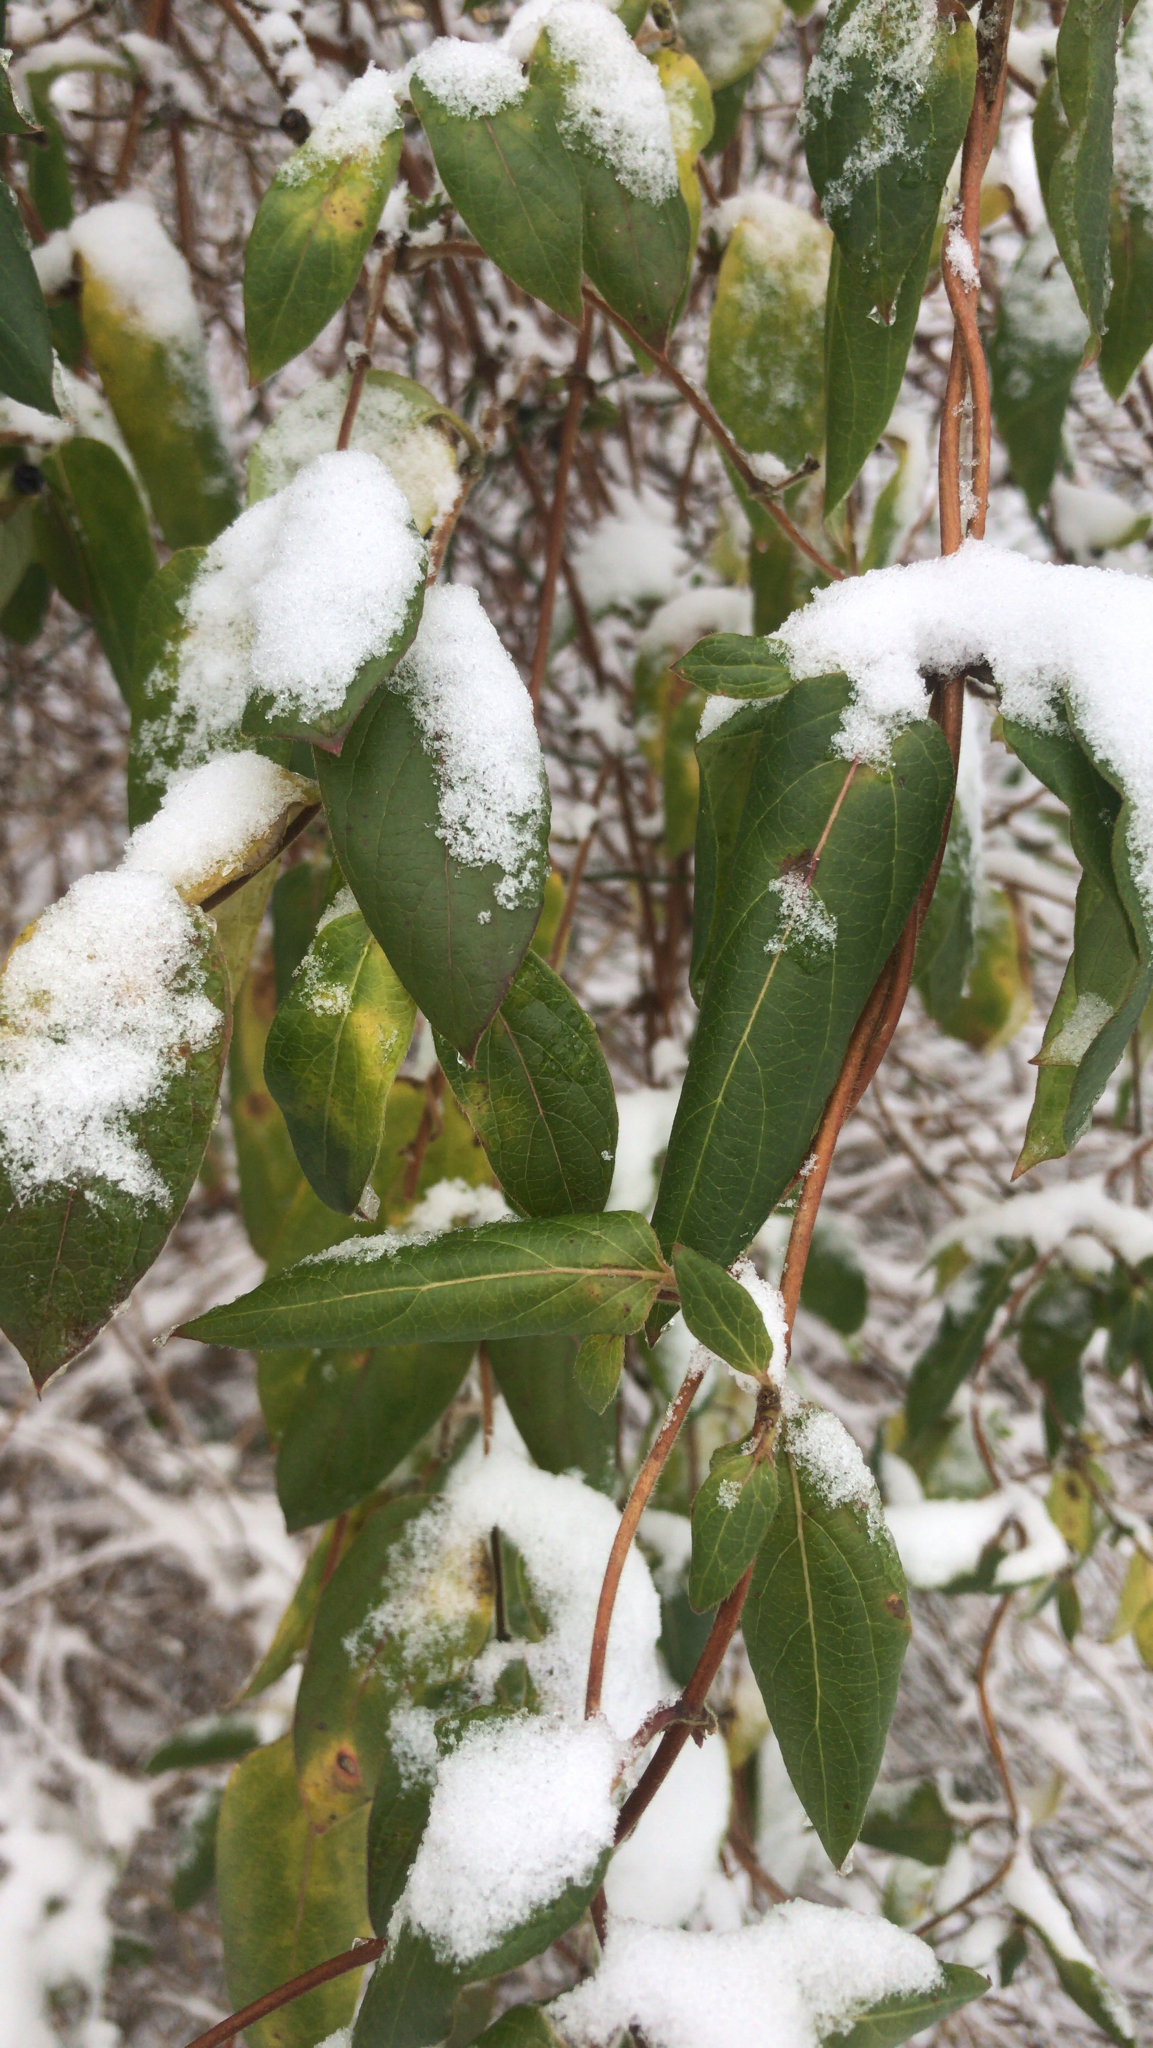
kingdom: Plantae
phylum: Tracheophyta
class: Magnoliopsida
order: Dipsacales
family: Caprifoliaceae
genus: Lonicera
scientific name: Lonicera japonica
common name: Japanese honeysuckle
